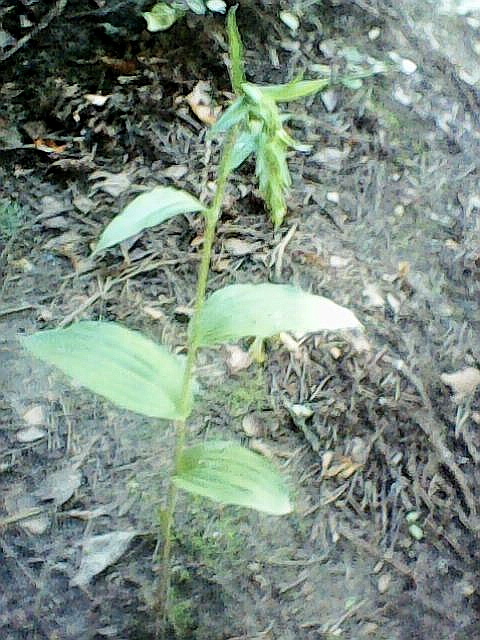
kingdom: Plantae
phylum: Tracheophyta
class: Liliopsida
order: Asparagales
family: Orchidaceae
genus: Epipactis
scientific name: Epipactis helleborine
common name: Broad-leaved helleborine
